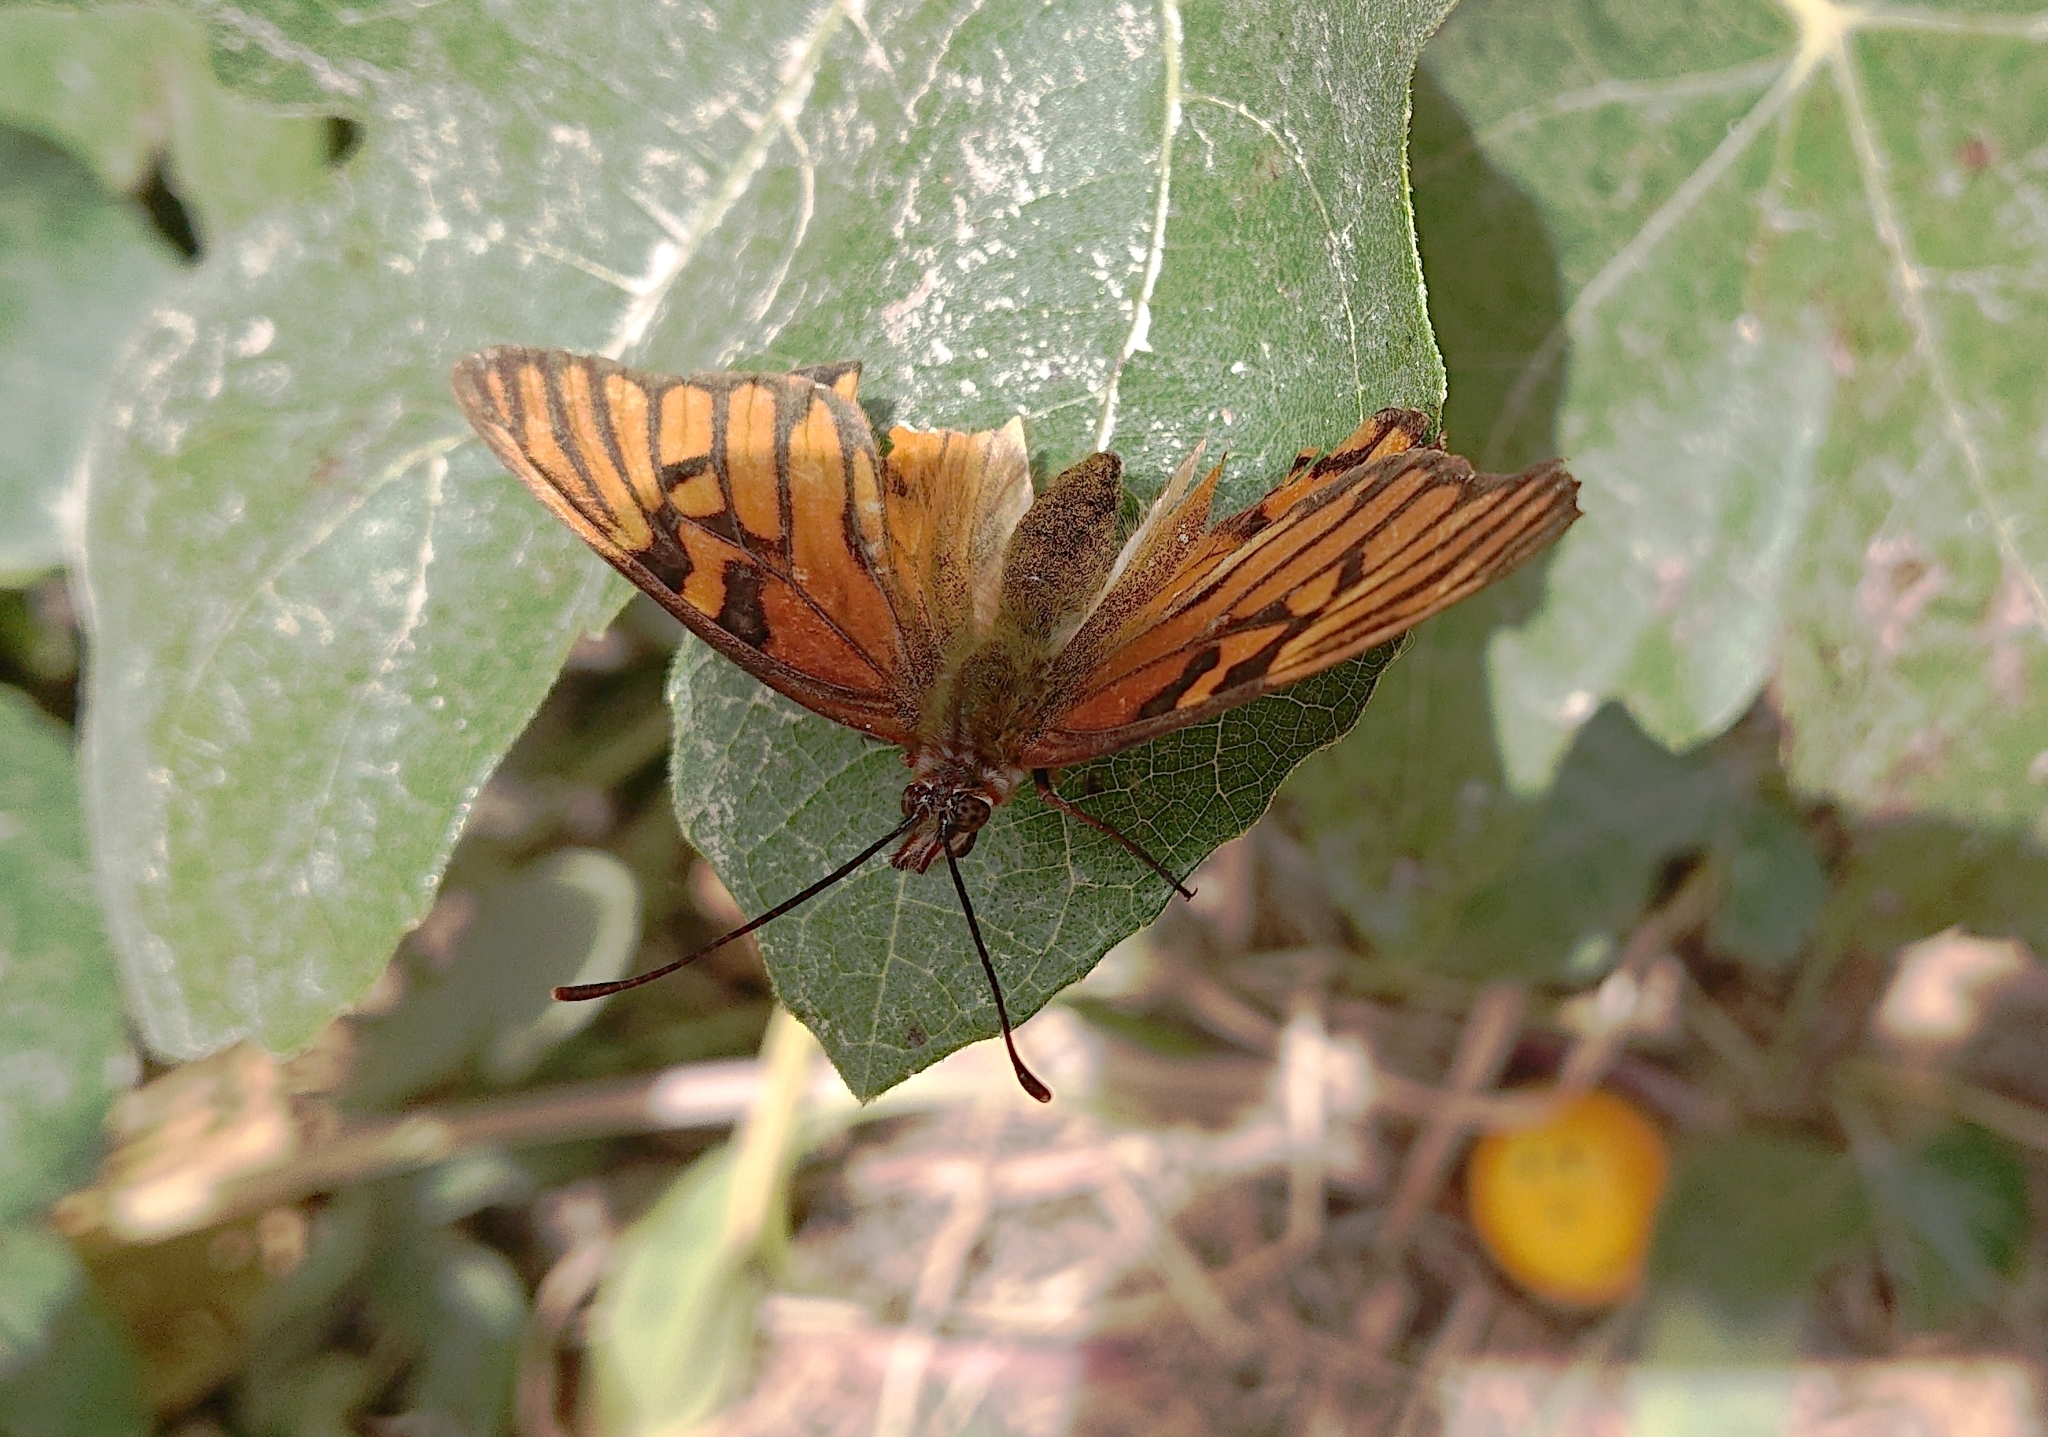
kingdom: Animalia
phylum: Arthropoda
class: Insecta
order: Lepidoptera
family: Nymphalidae
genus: Dione
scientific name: Dione glycera
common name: Andean silverspot
